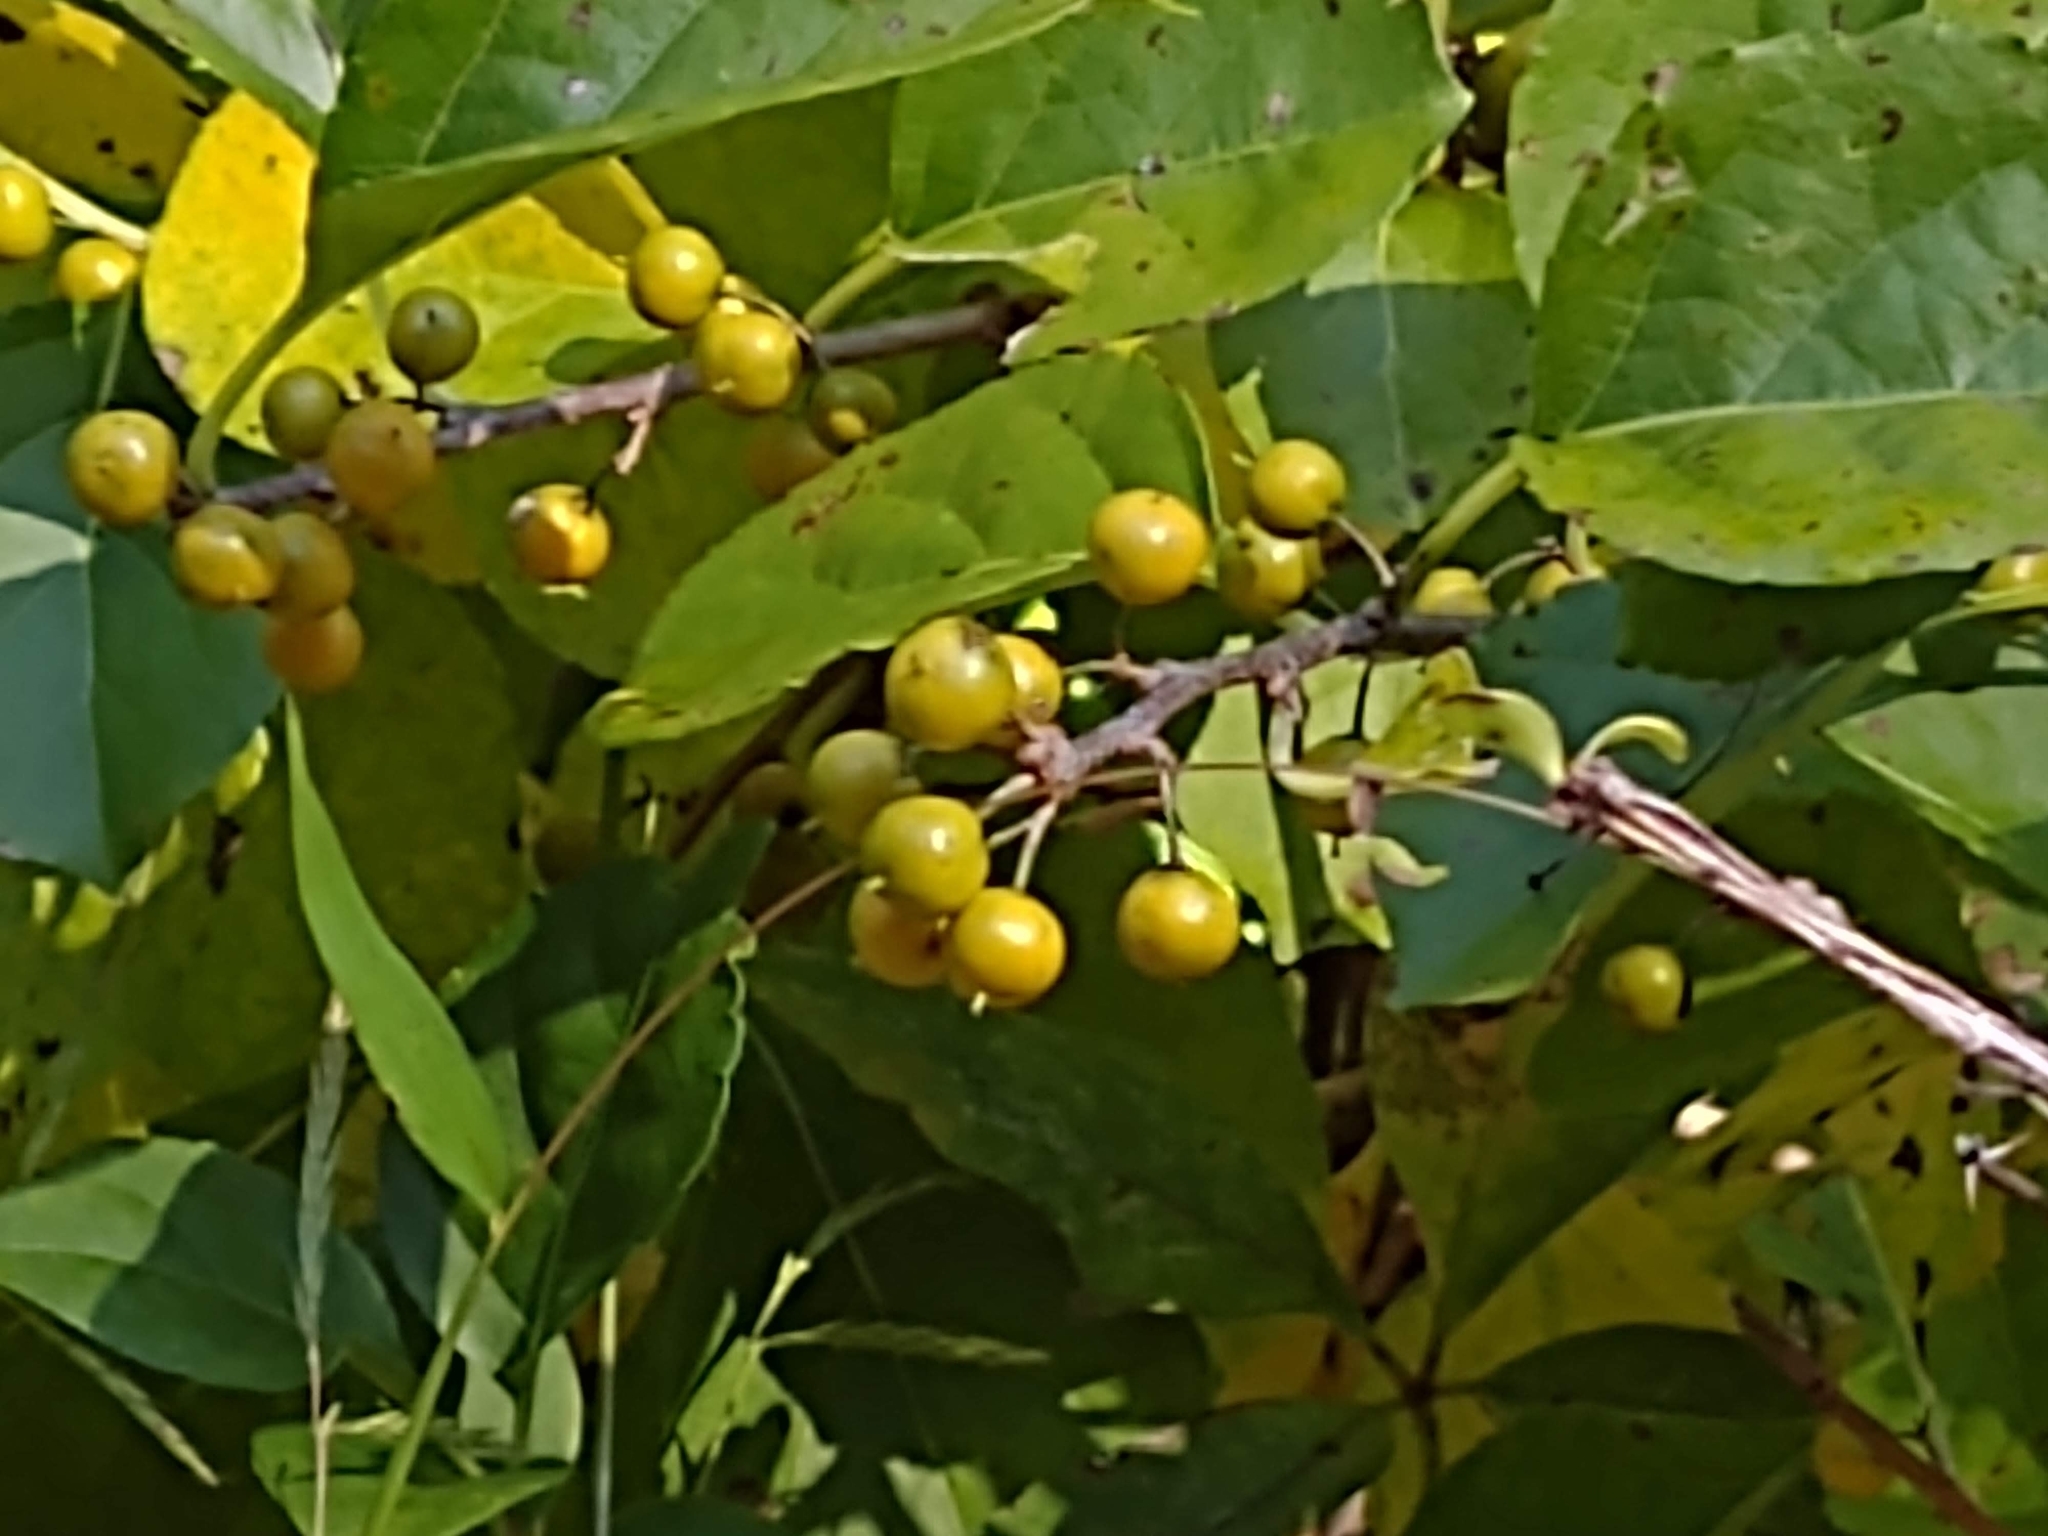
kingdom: Plantae
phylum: Tracheophyta
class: Magnoliopsida
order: Celastrales
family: Celastraceae
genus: Celastrus
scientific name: Celastrus orbiculatus
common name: Oriental bittersweet
